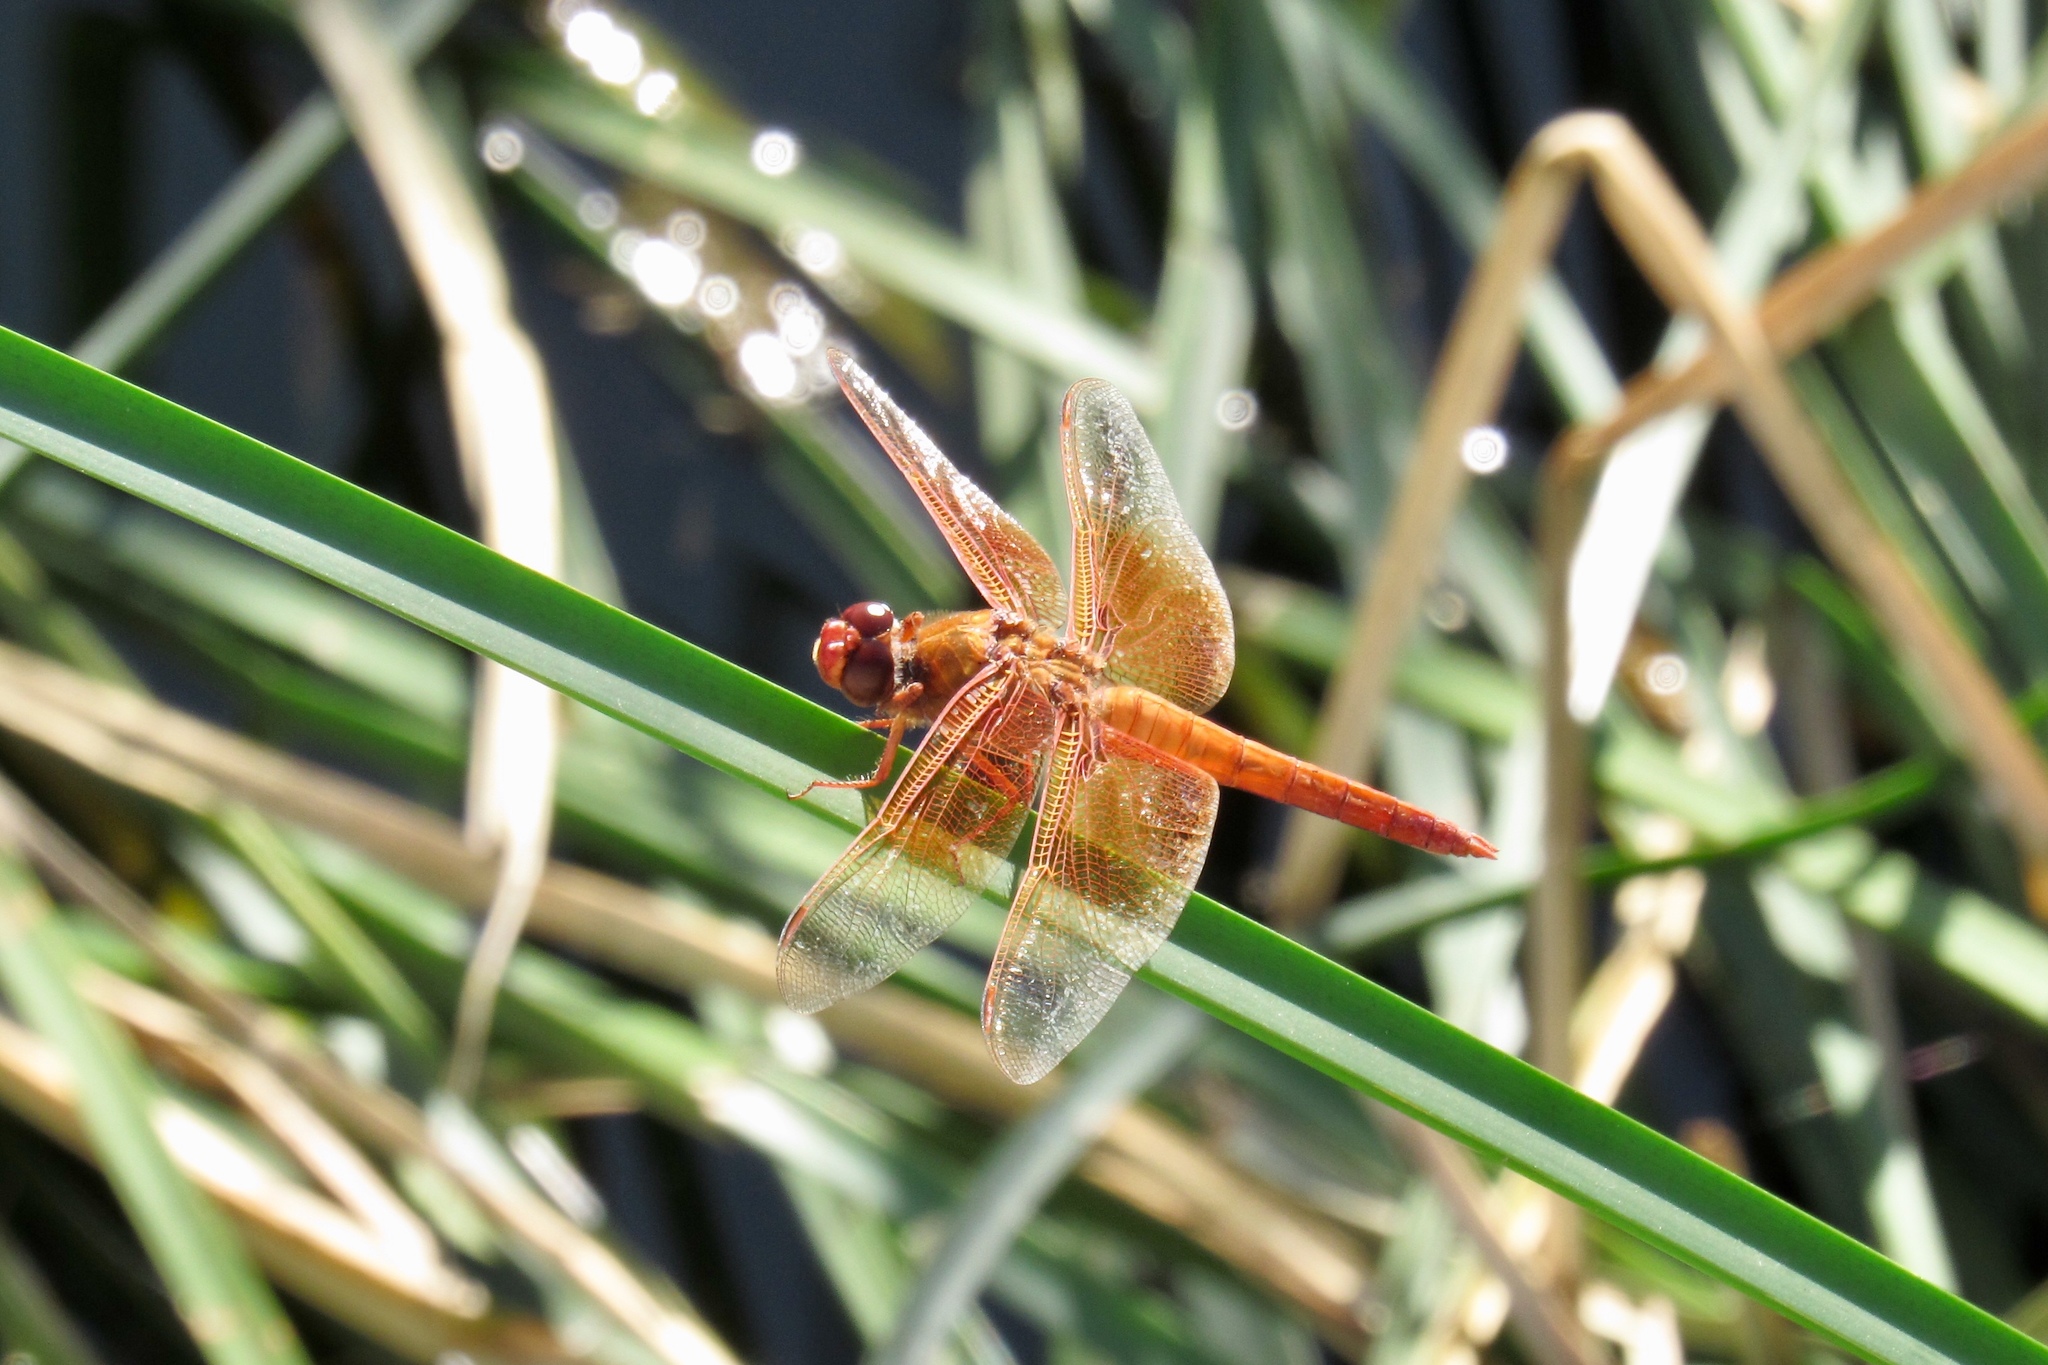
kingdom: Animalia
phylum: Arthropoda
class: Insecta
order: Odonata
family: Libellulidae
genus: Libellula
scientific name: Libellula saturata
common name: Flame skimmer
